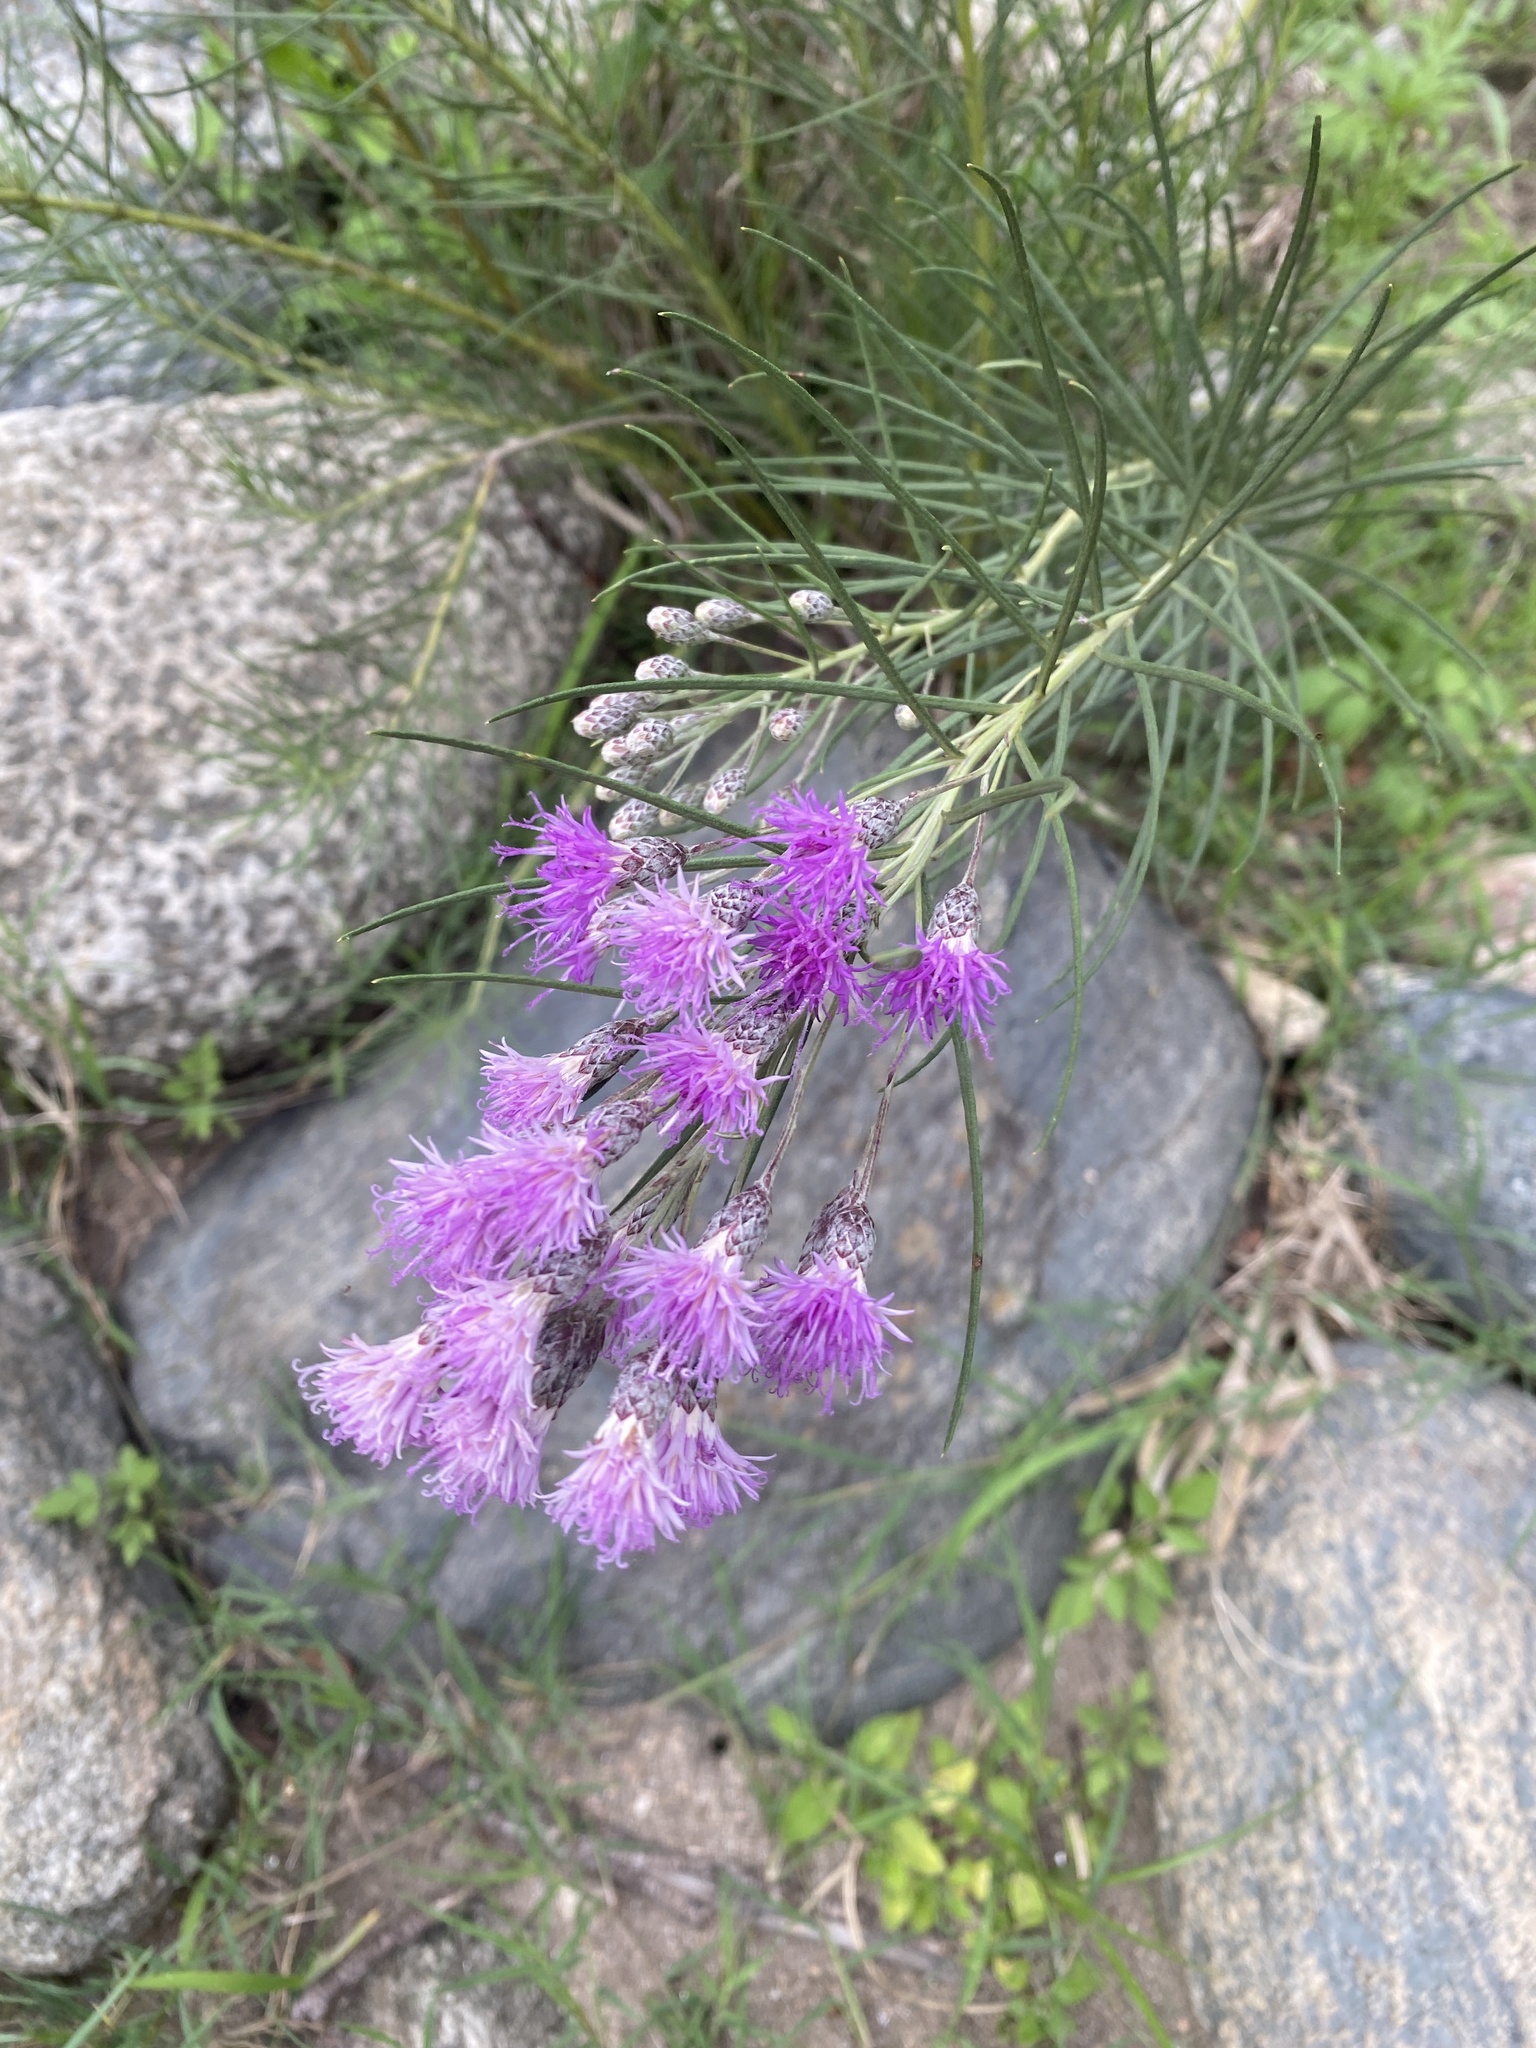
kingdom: Plantae
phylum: Tracheophyta
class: Magnoliopsida
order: Asterales
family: Asteraceae
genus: Vernonanthura
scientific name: Vernonanthura nudiflora
